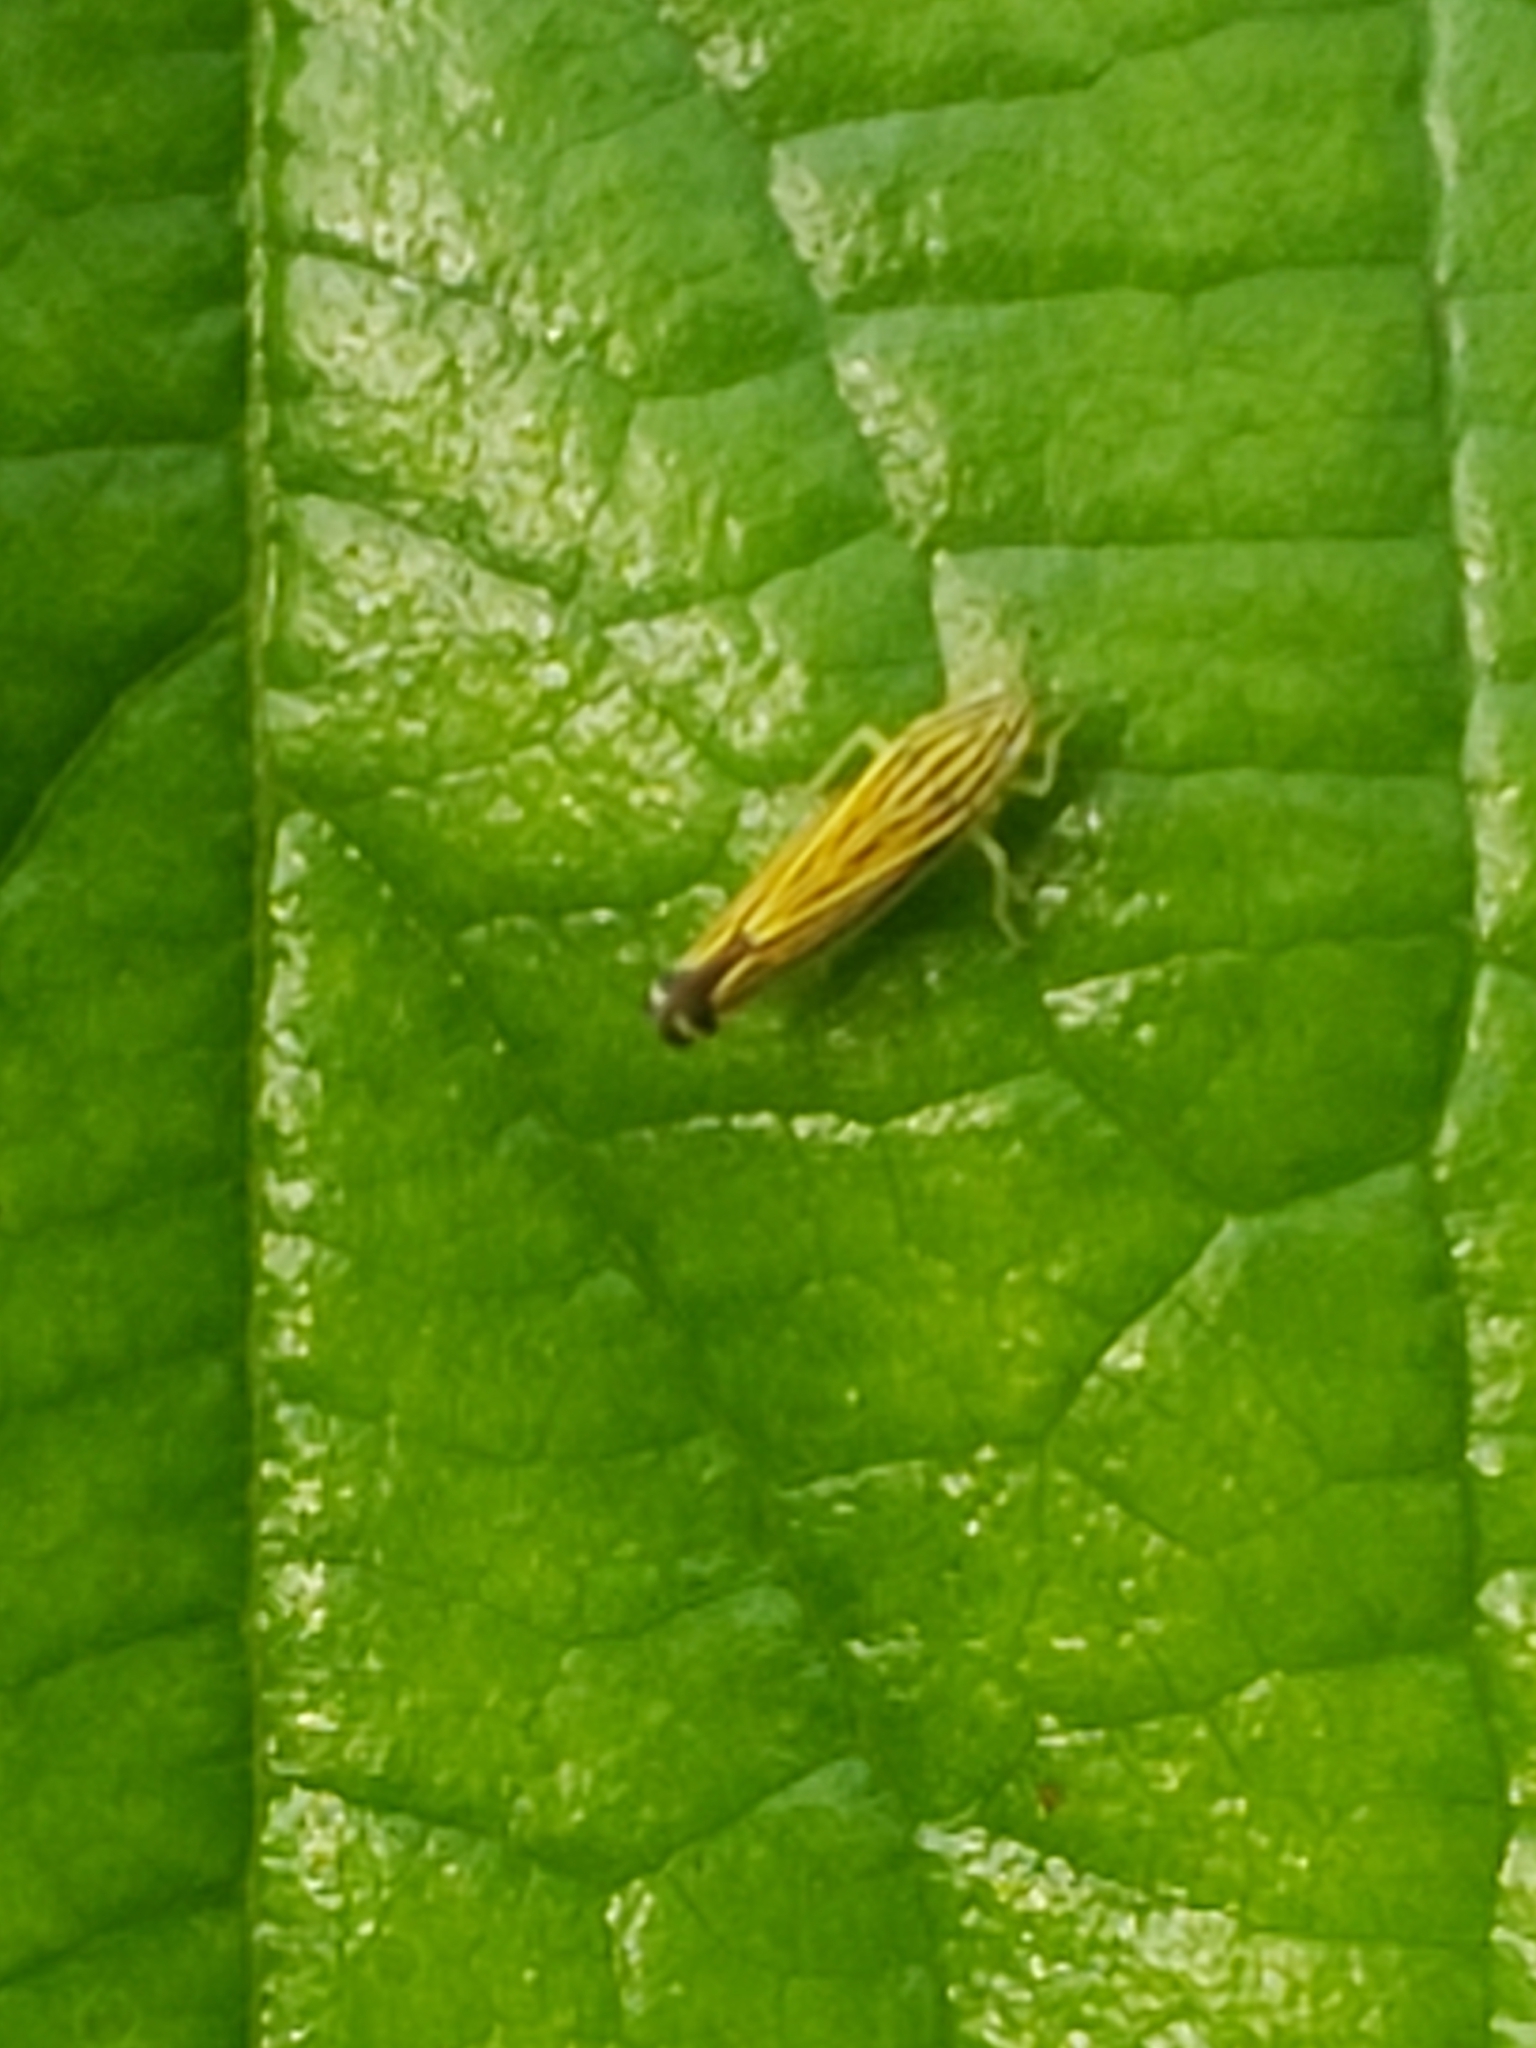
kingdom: Animalia
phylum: Arthropoda
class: Insecta
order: Hemiptera
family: Cicadellidae
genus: Sibovia
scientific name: Sibovia occatoria
